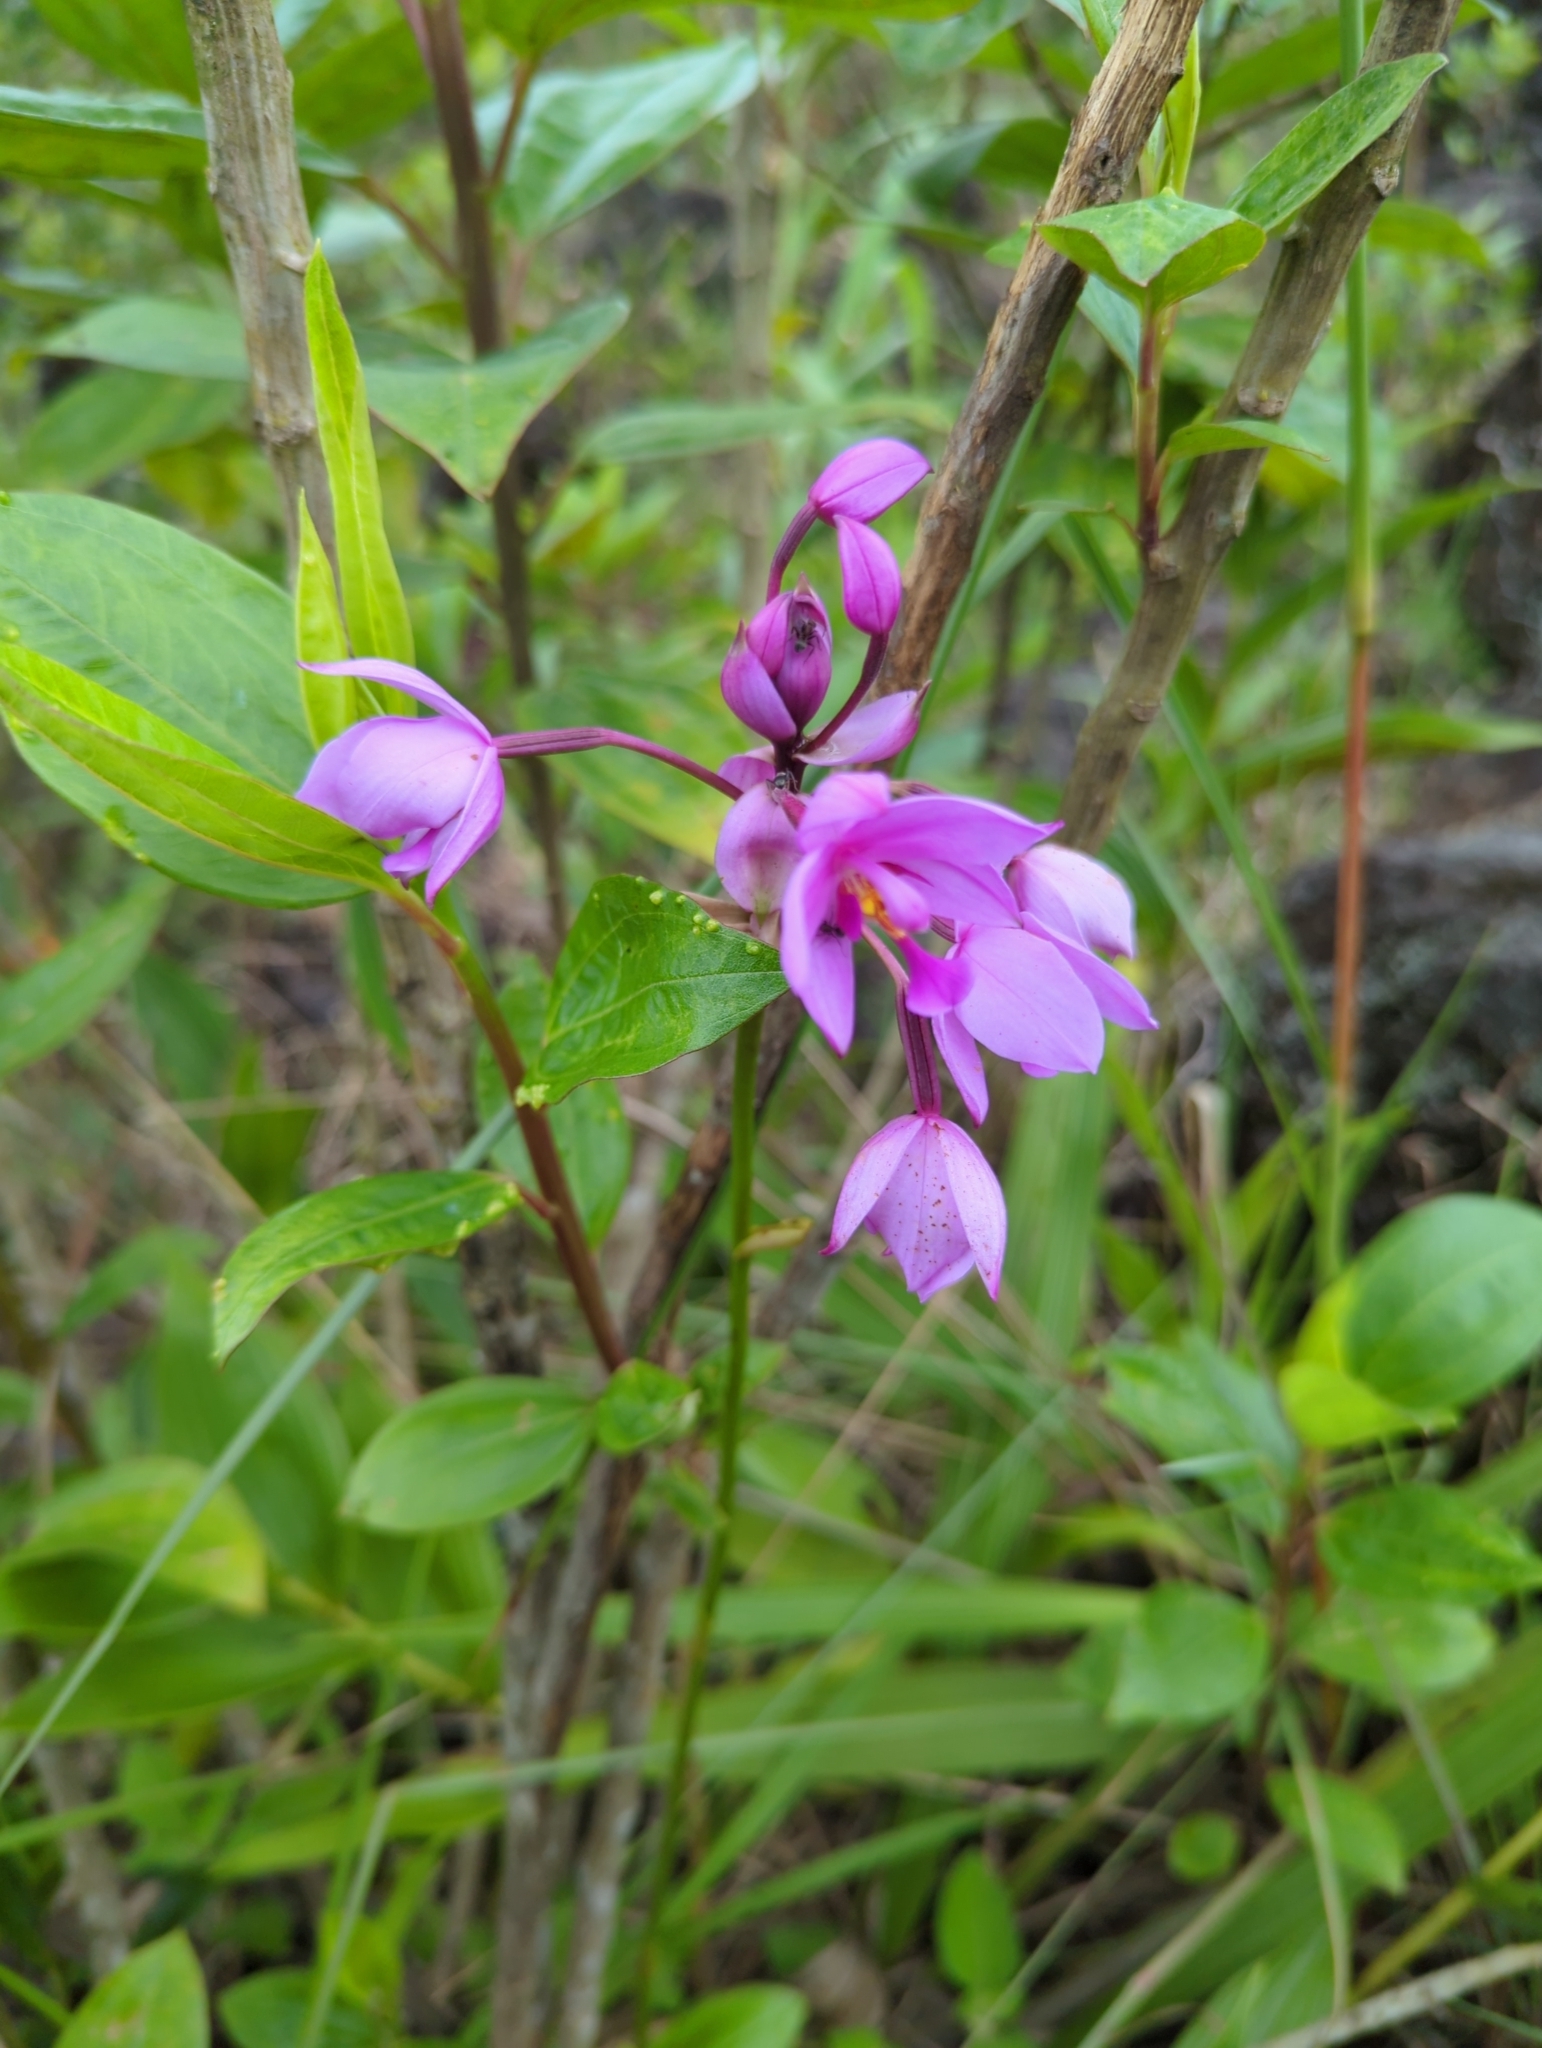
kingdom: Plantae
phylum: Tracheophyta
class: Liliopsida
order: Asparagales
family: Orchidaceae
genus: Spathoglottis
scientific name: Spathoglottis plicata
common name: Philippine ground orchid
